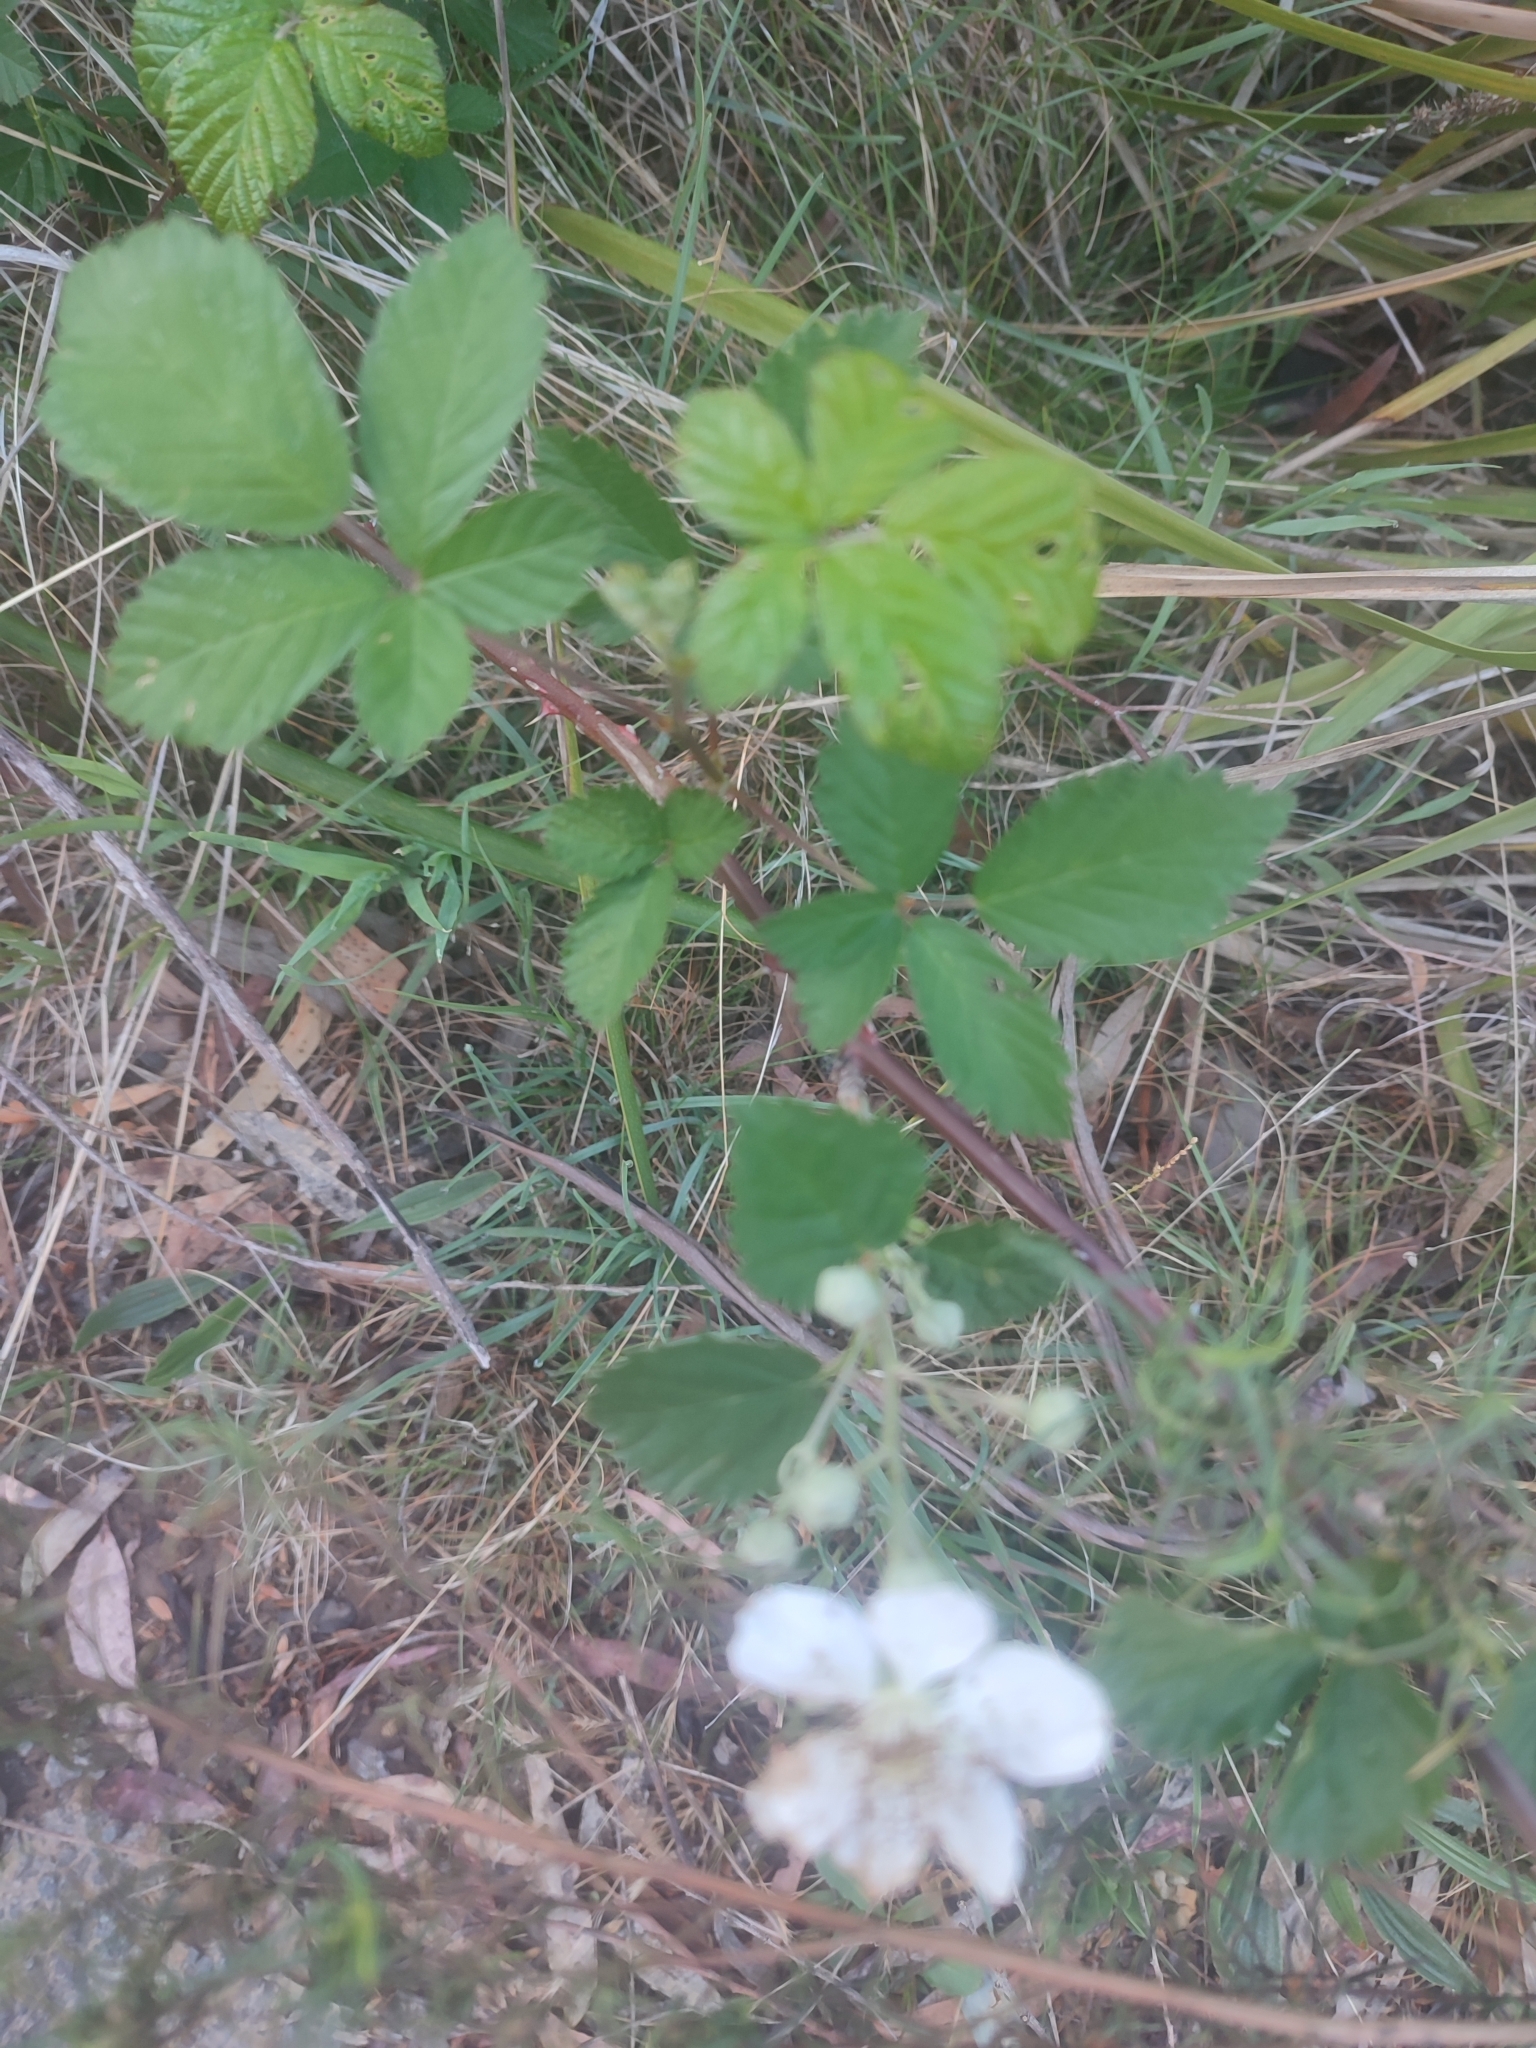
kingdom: Plantae
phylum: Tracheophyta
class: Magnoliopsida
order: Rosales
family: Rosaceae
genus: Rubus
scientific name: Rubus grabowskii
